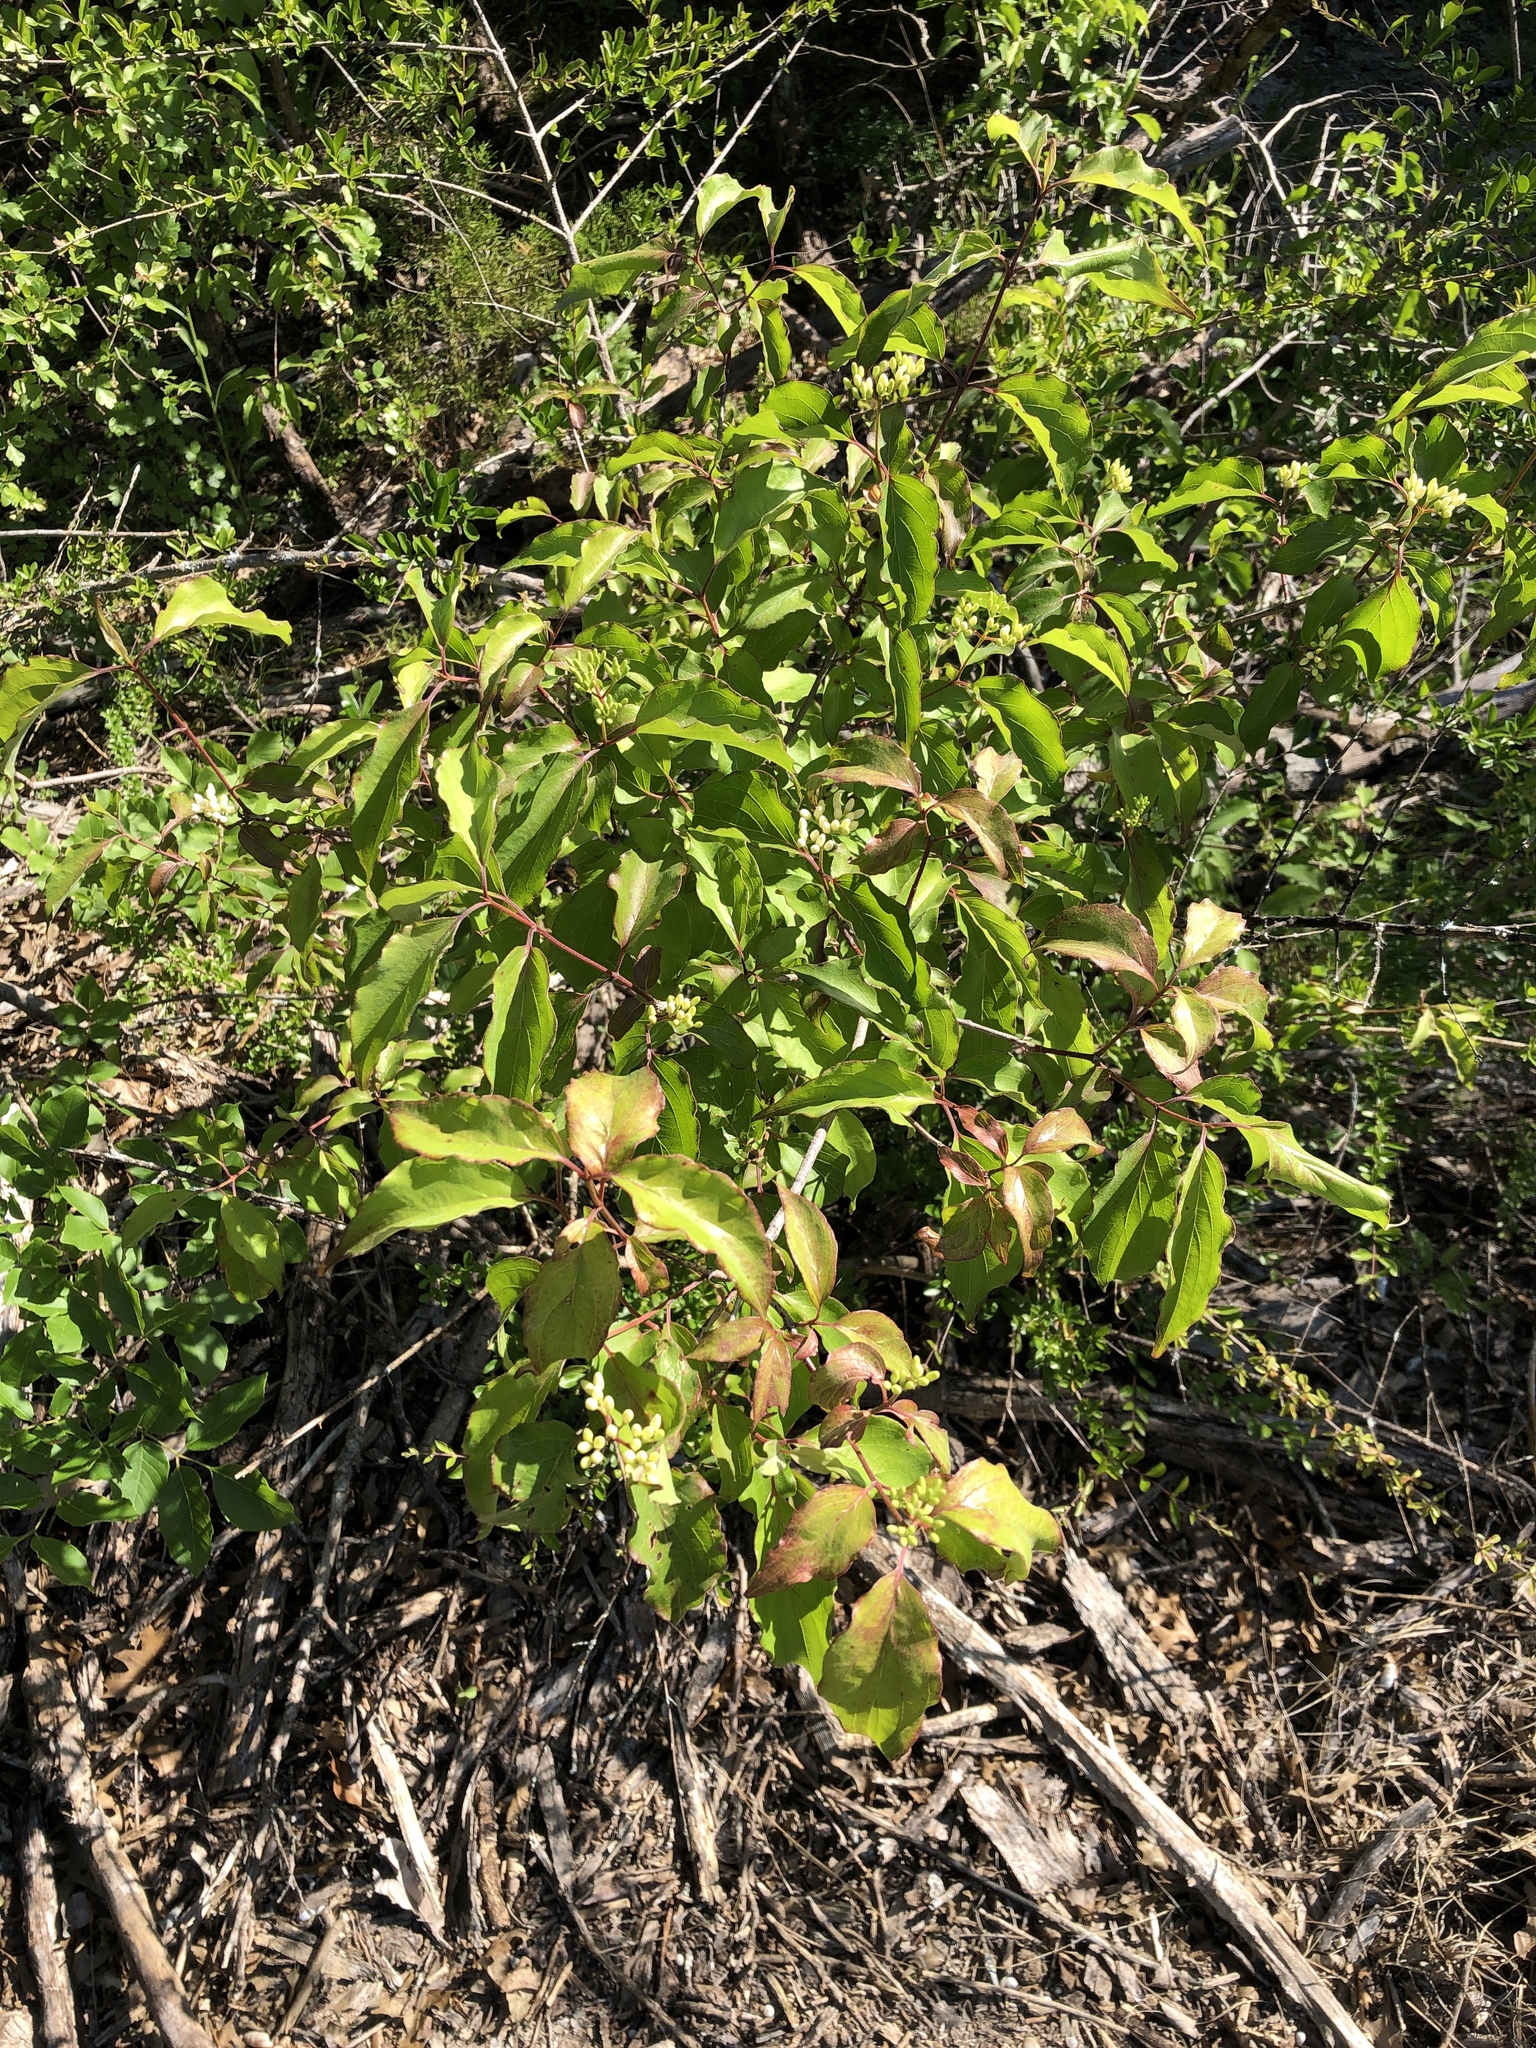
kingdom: Plantae
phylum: Tracheophyta
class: Magnoliopsida
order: Cornales
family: Cornaceae
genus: Cornus
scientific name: Cornus drummondii
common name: Rough-leaf dogwood
